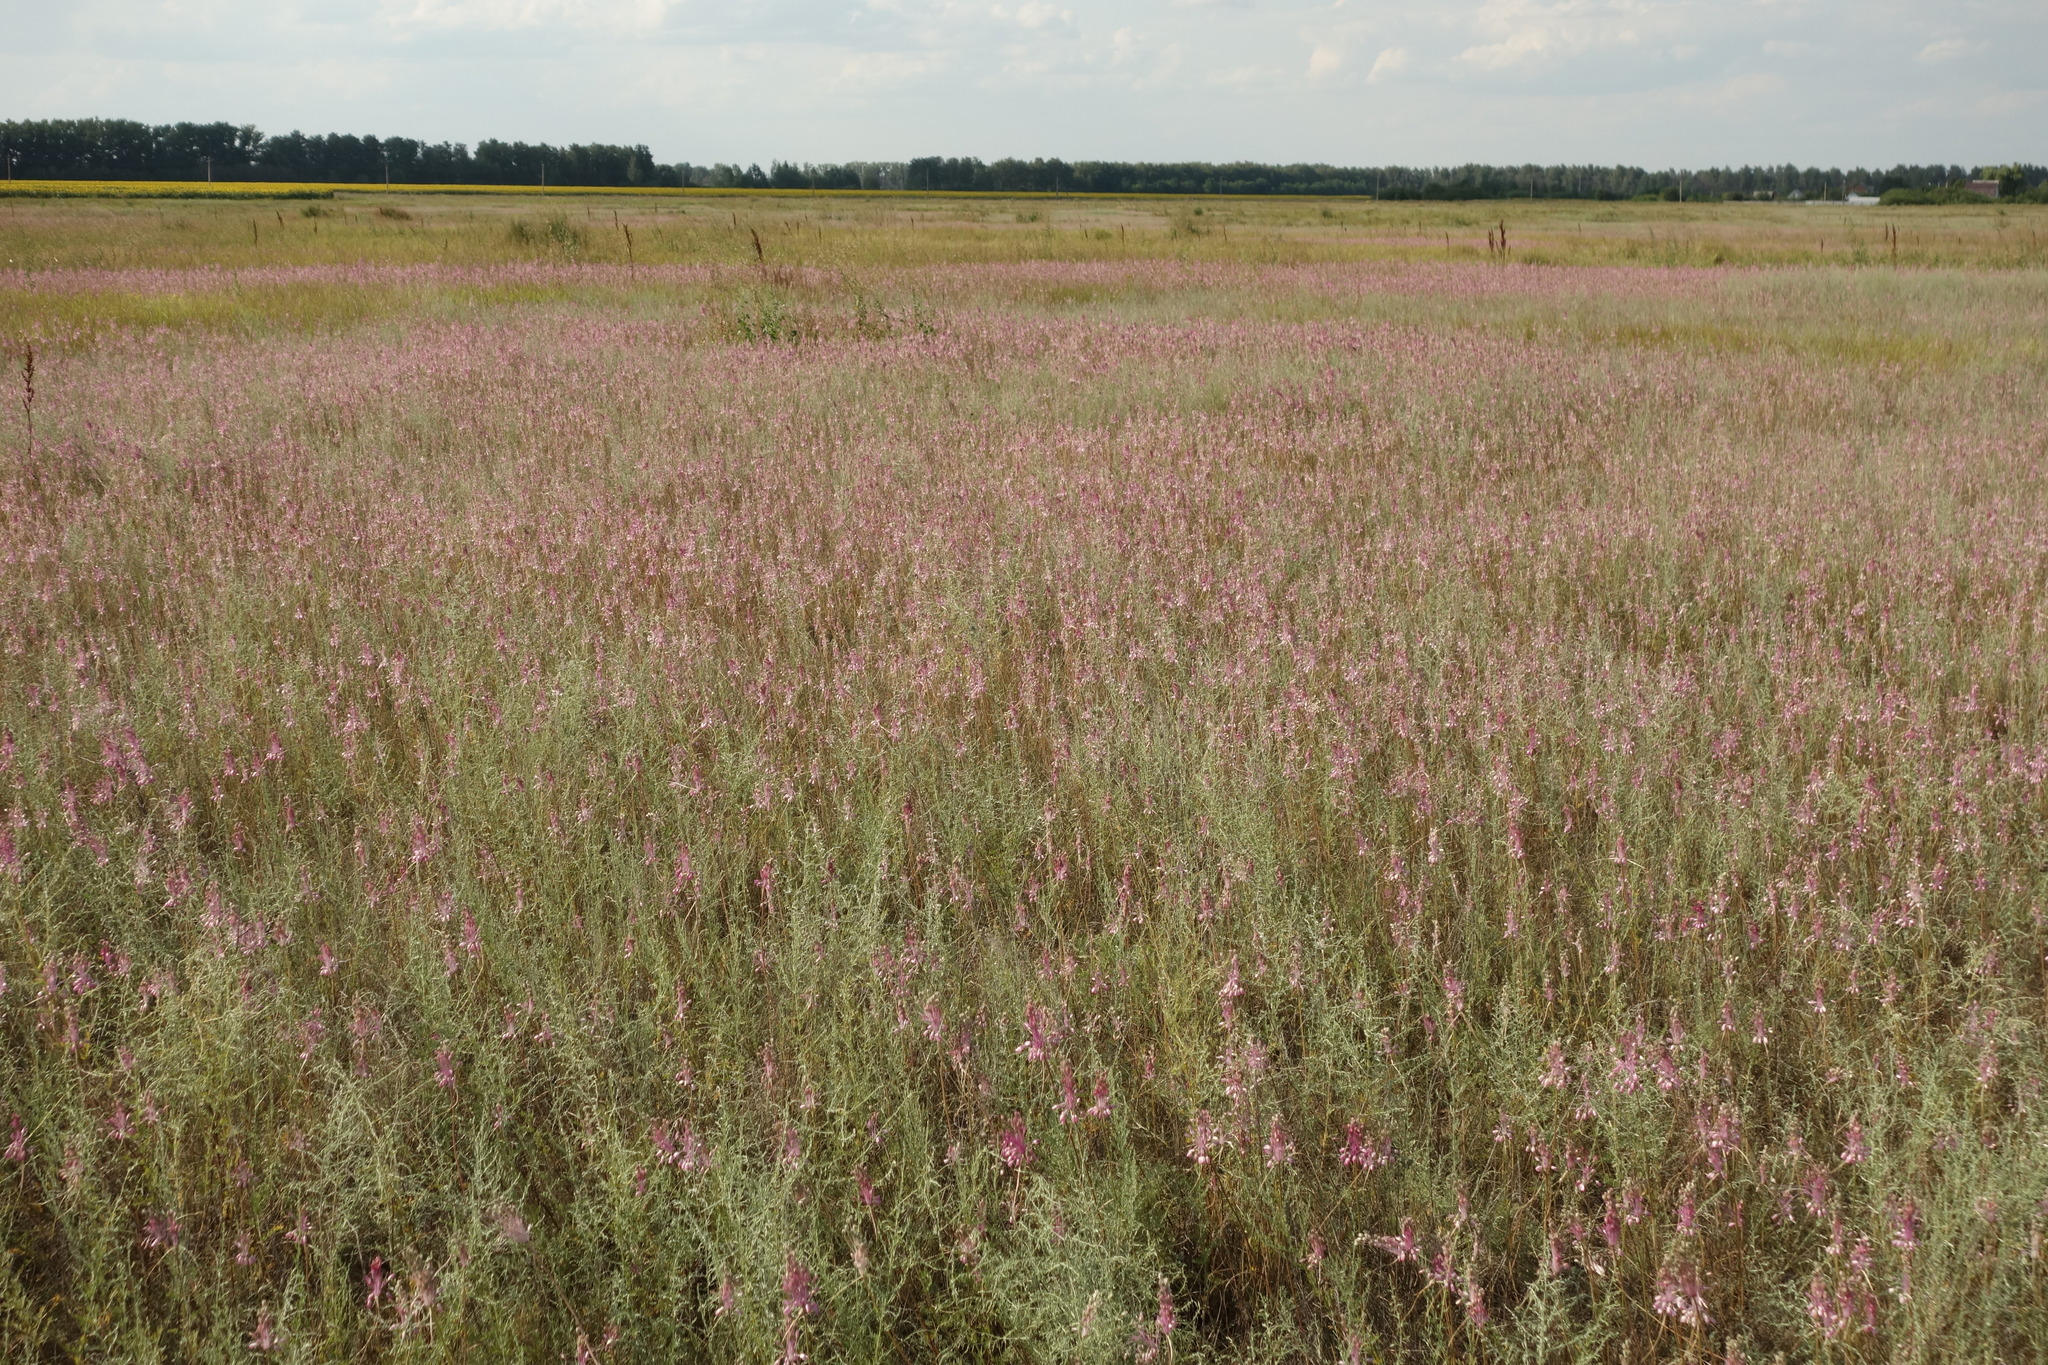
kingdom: Plantae
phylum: Tracheophyta
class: Liliopsida
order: Asparagales
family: Amaryllidaceae
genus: Allium
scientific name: Allium praescissum
